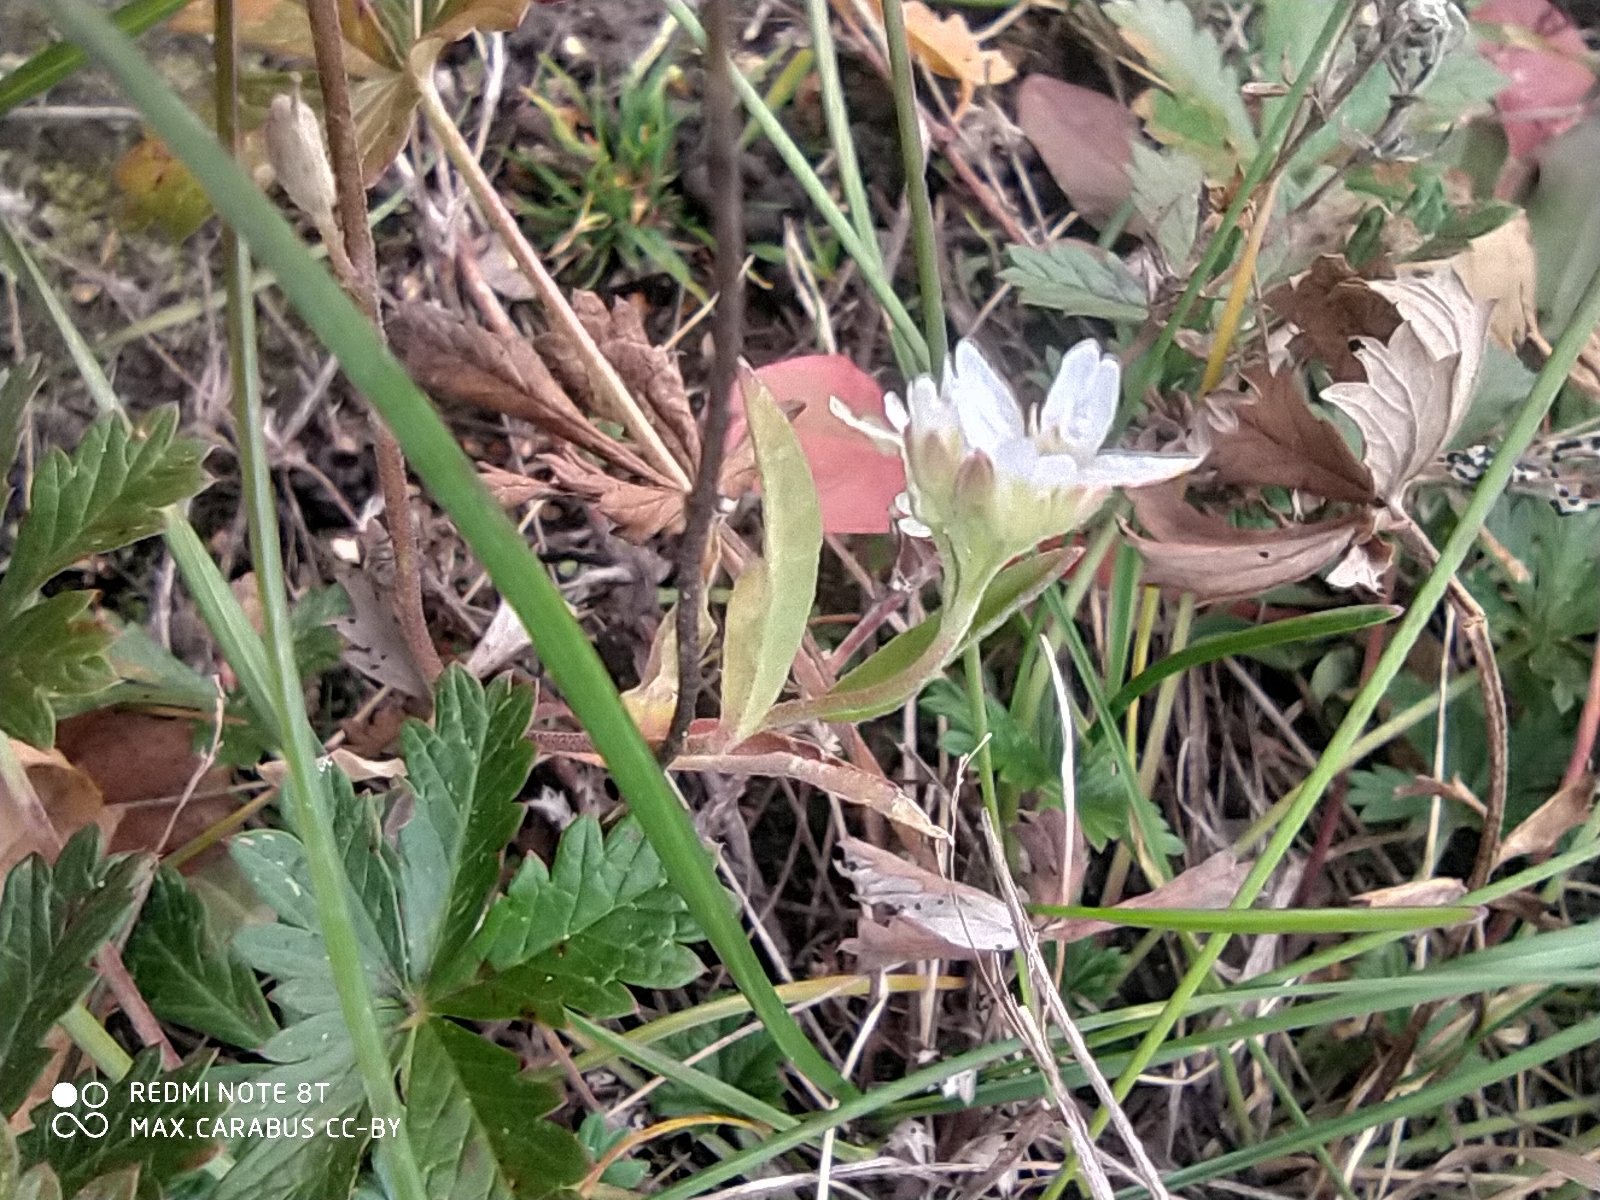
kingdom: Plantae
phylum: Tracheophyta
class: Magnoliopsida
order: Brassicales
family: Brassicaceae
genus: Berteroa
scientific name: Berteroa incana
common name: Hoary alison
